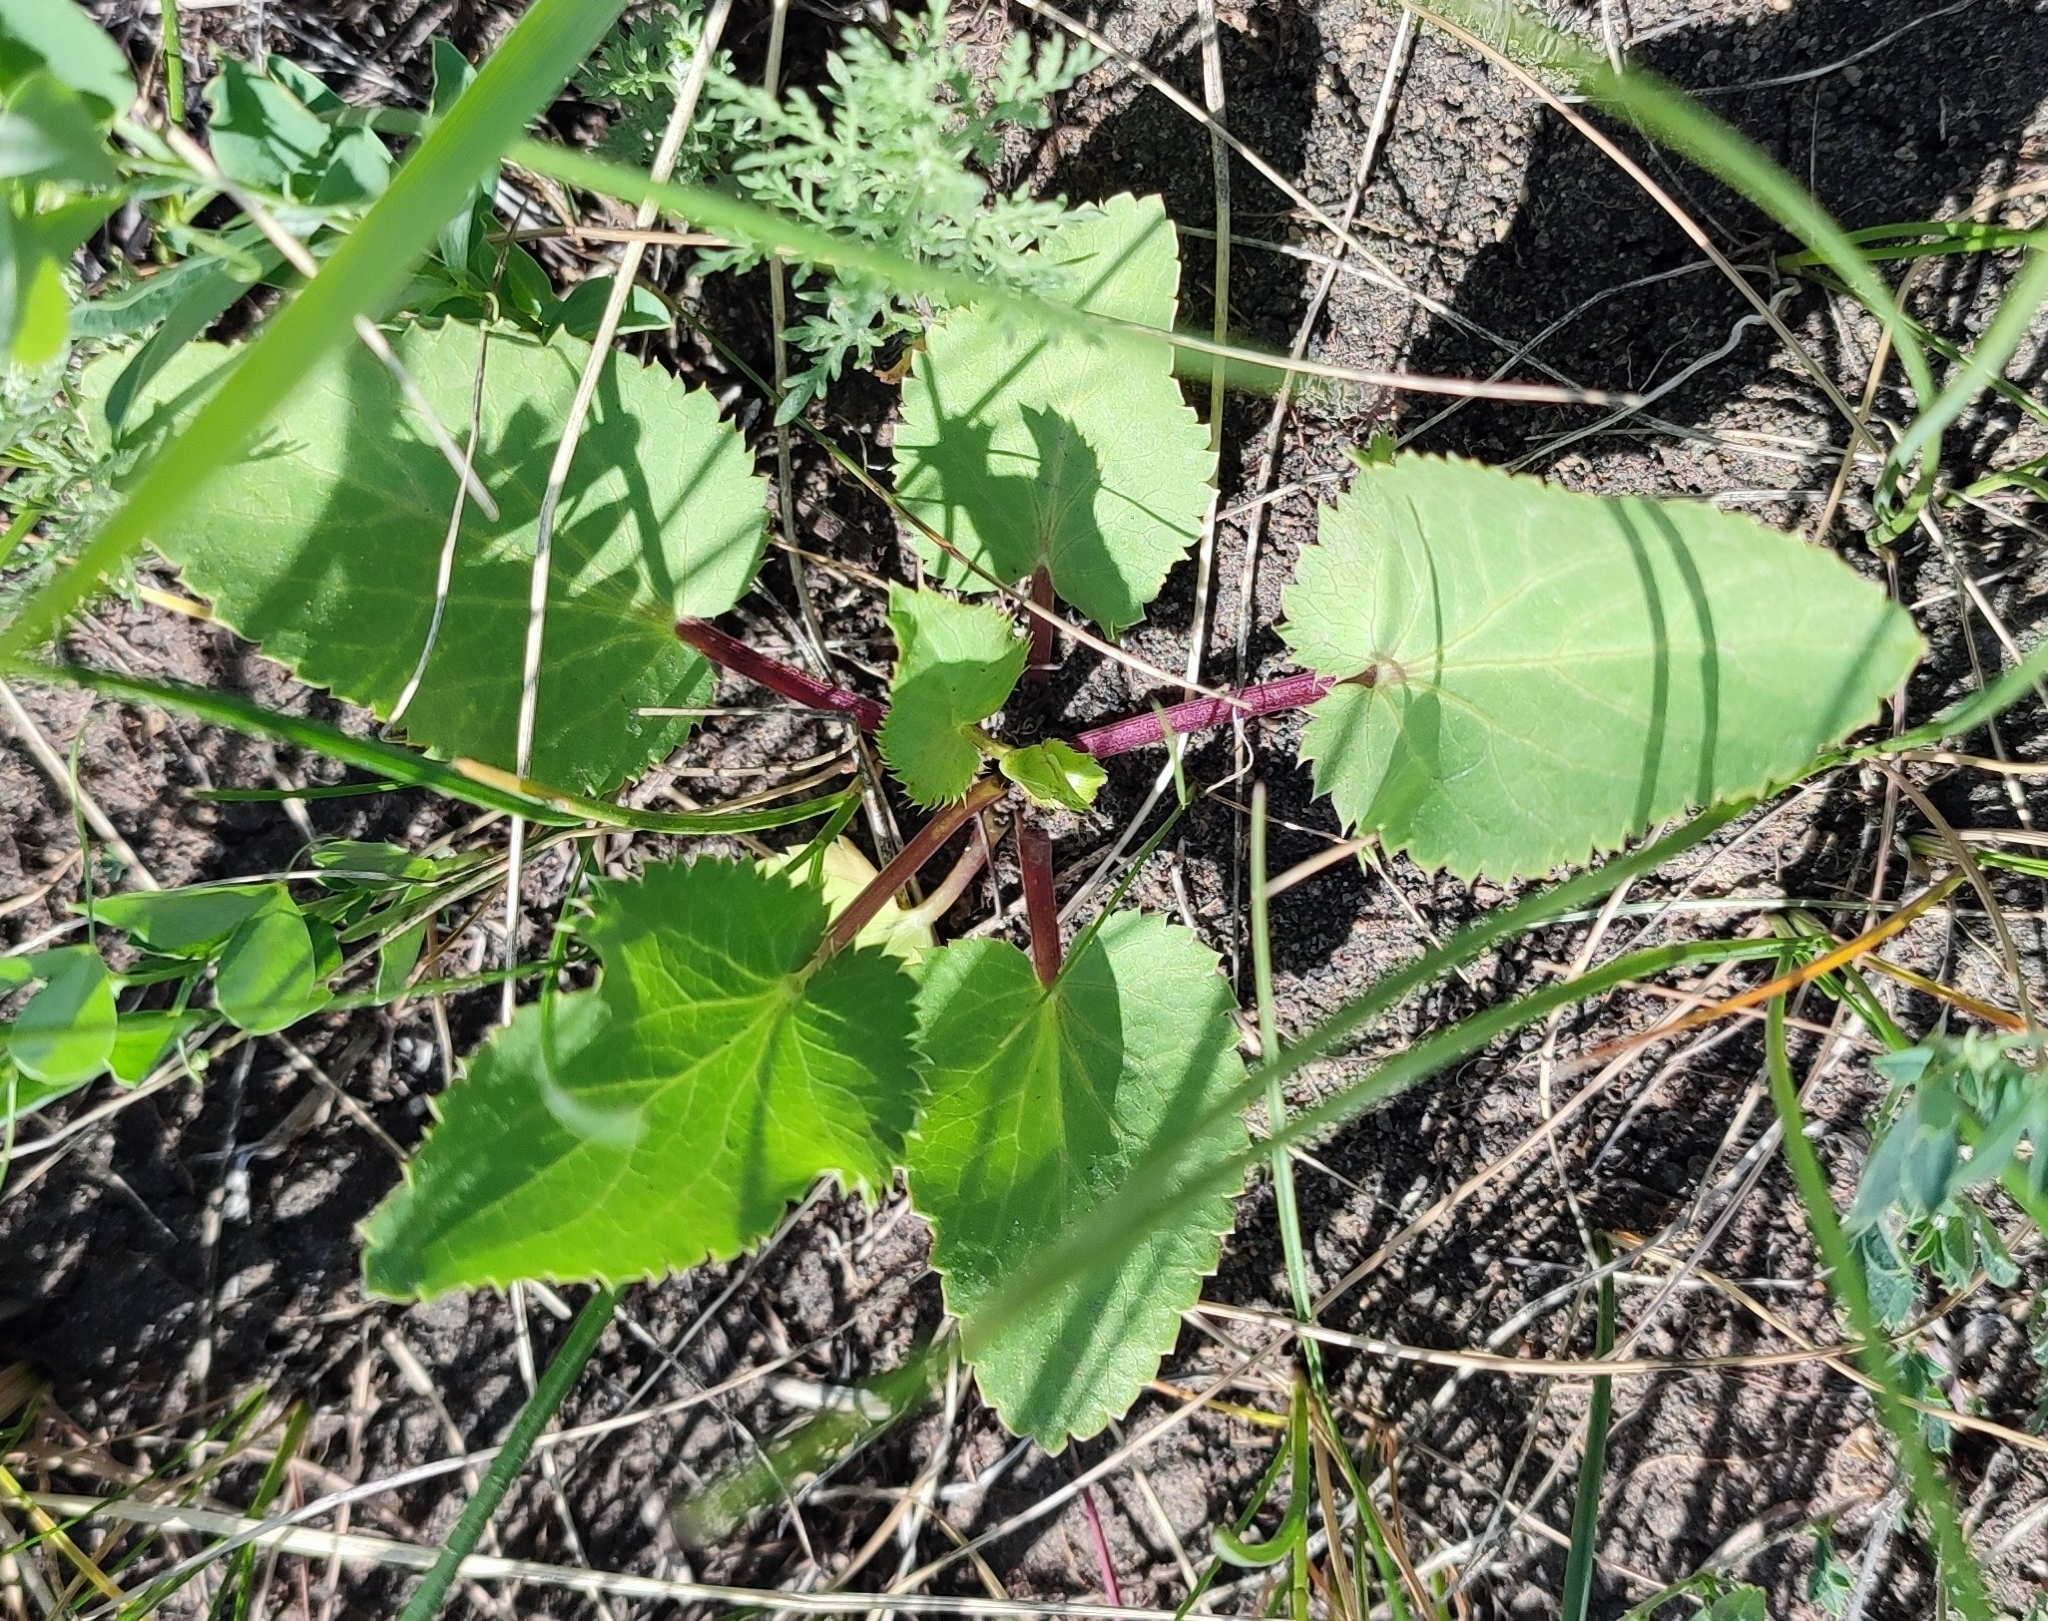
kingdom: Plantae
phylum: Tracheophyta
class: Magnoliopsida
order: Apiales
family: Apiaceae
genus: Eryngium
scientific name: Eryngium planum
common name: Blue eryngo
